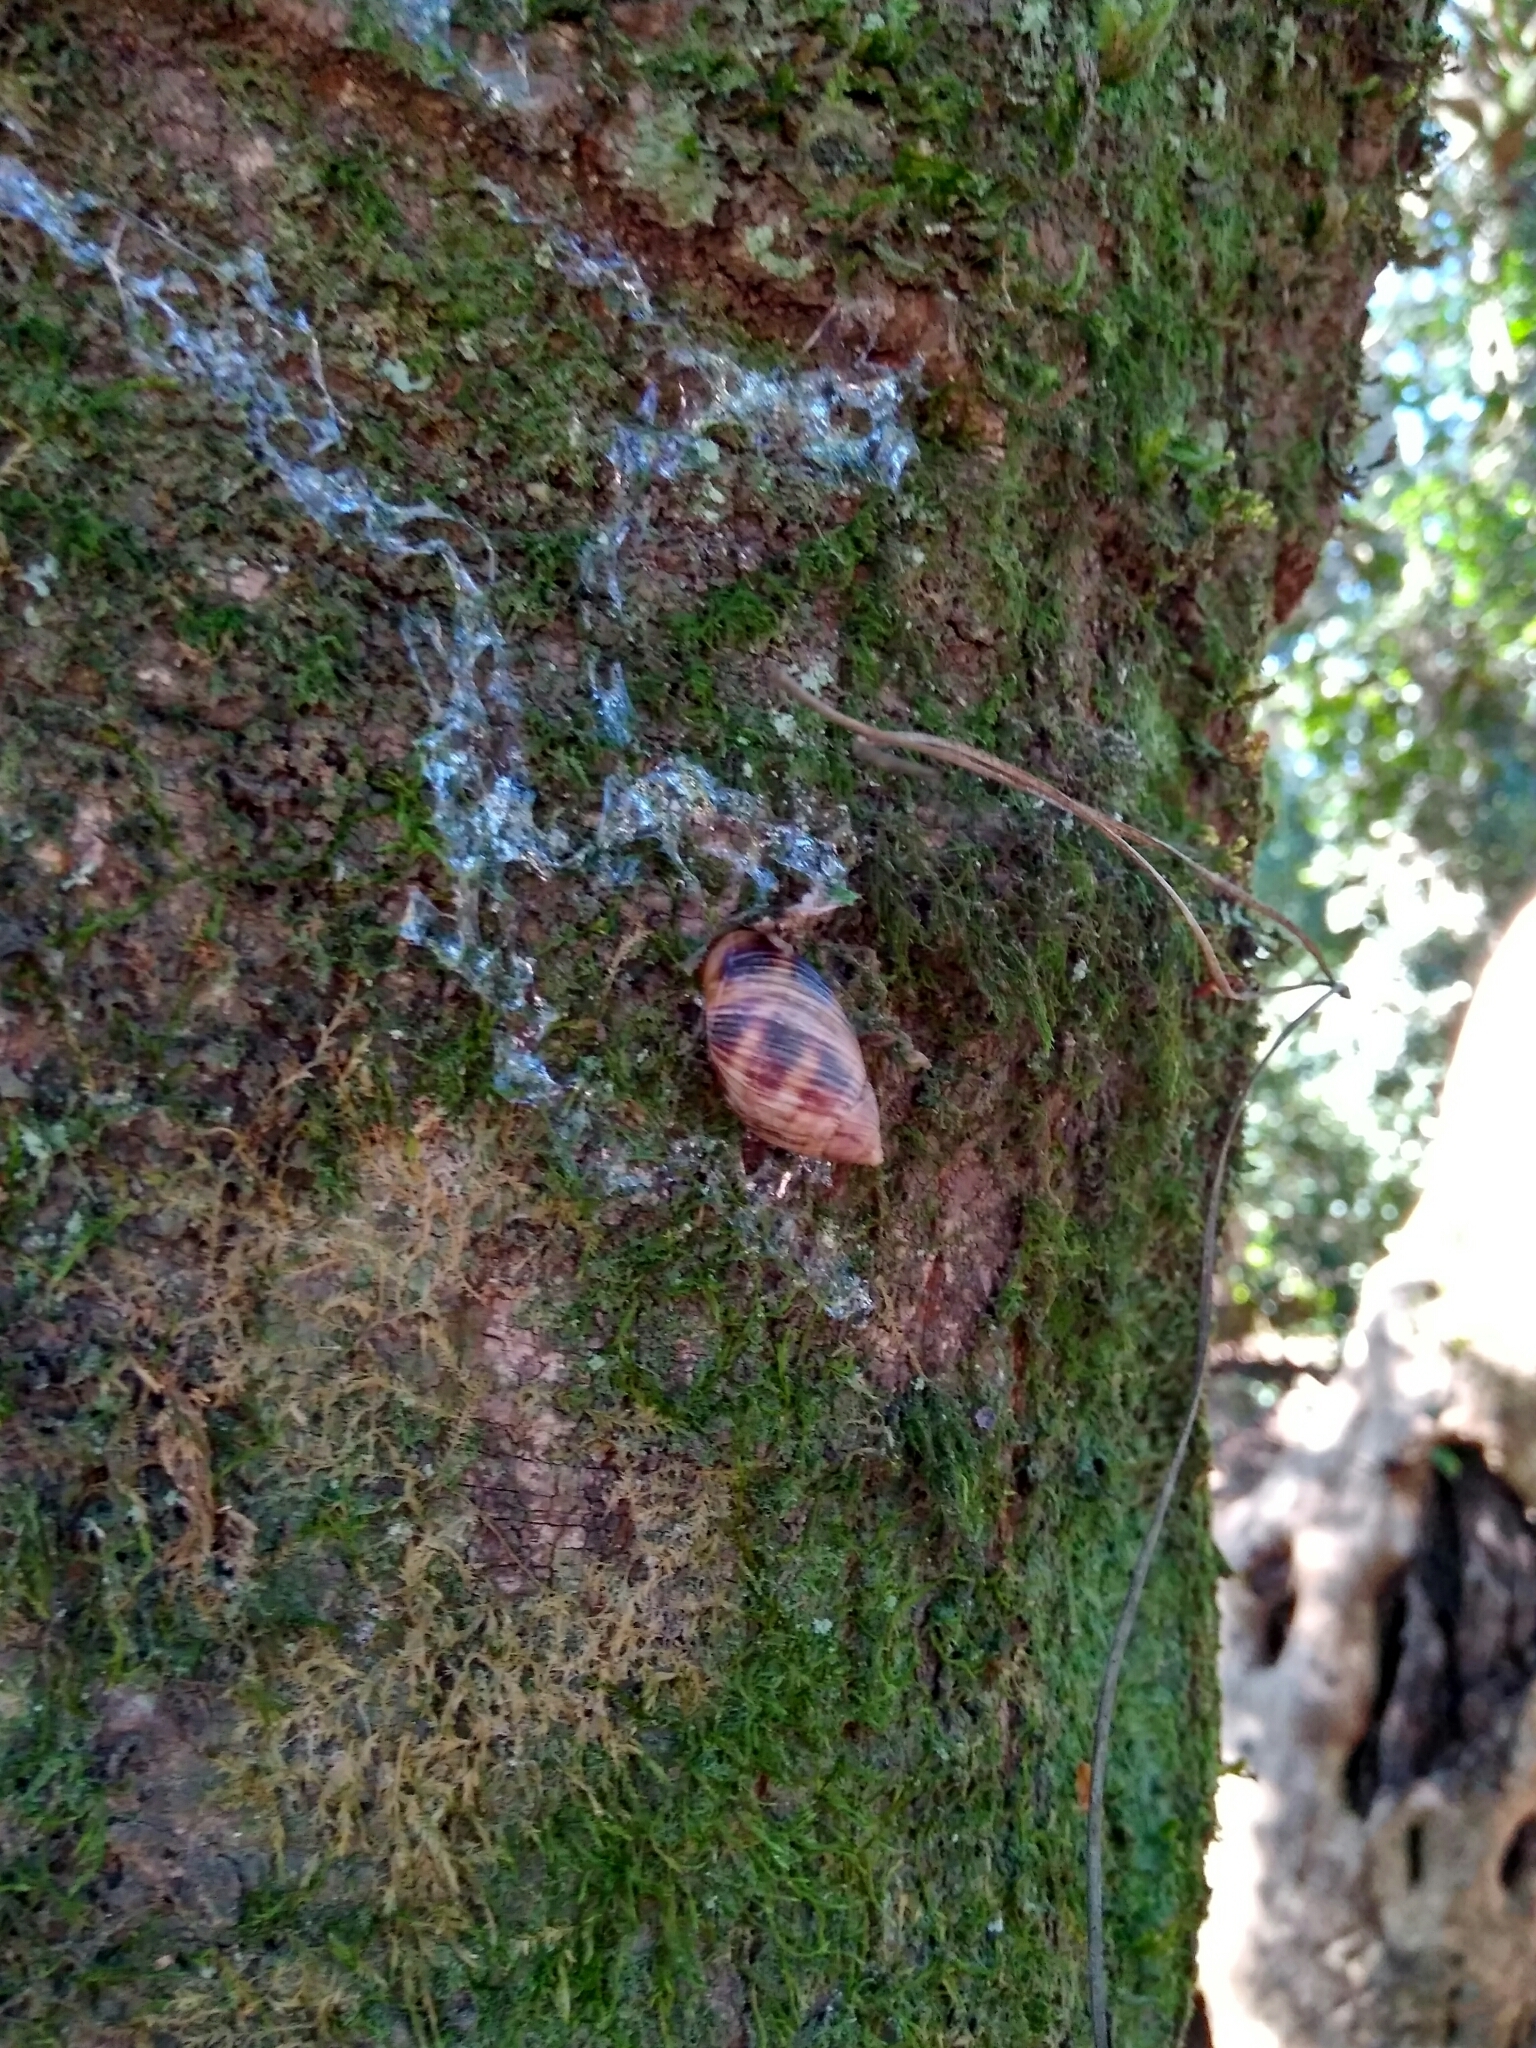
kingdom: Animalia
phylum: Mollusca
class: Gastropoda
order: Stylommatophora
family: Bothriembryontidae
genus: Plectostylus
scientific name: Plectostylus araucanus
